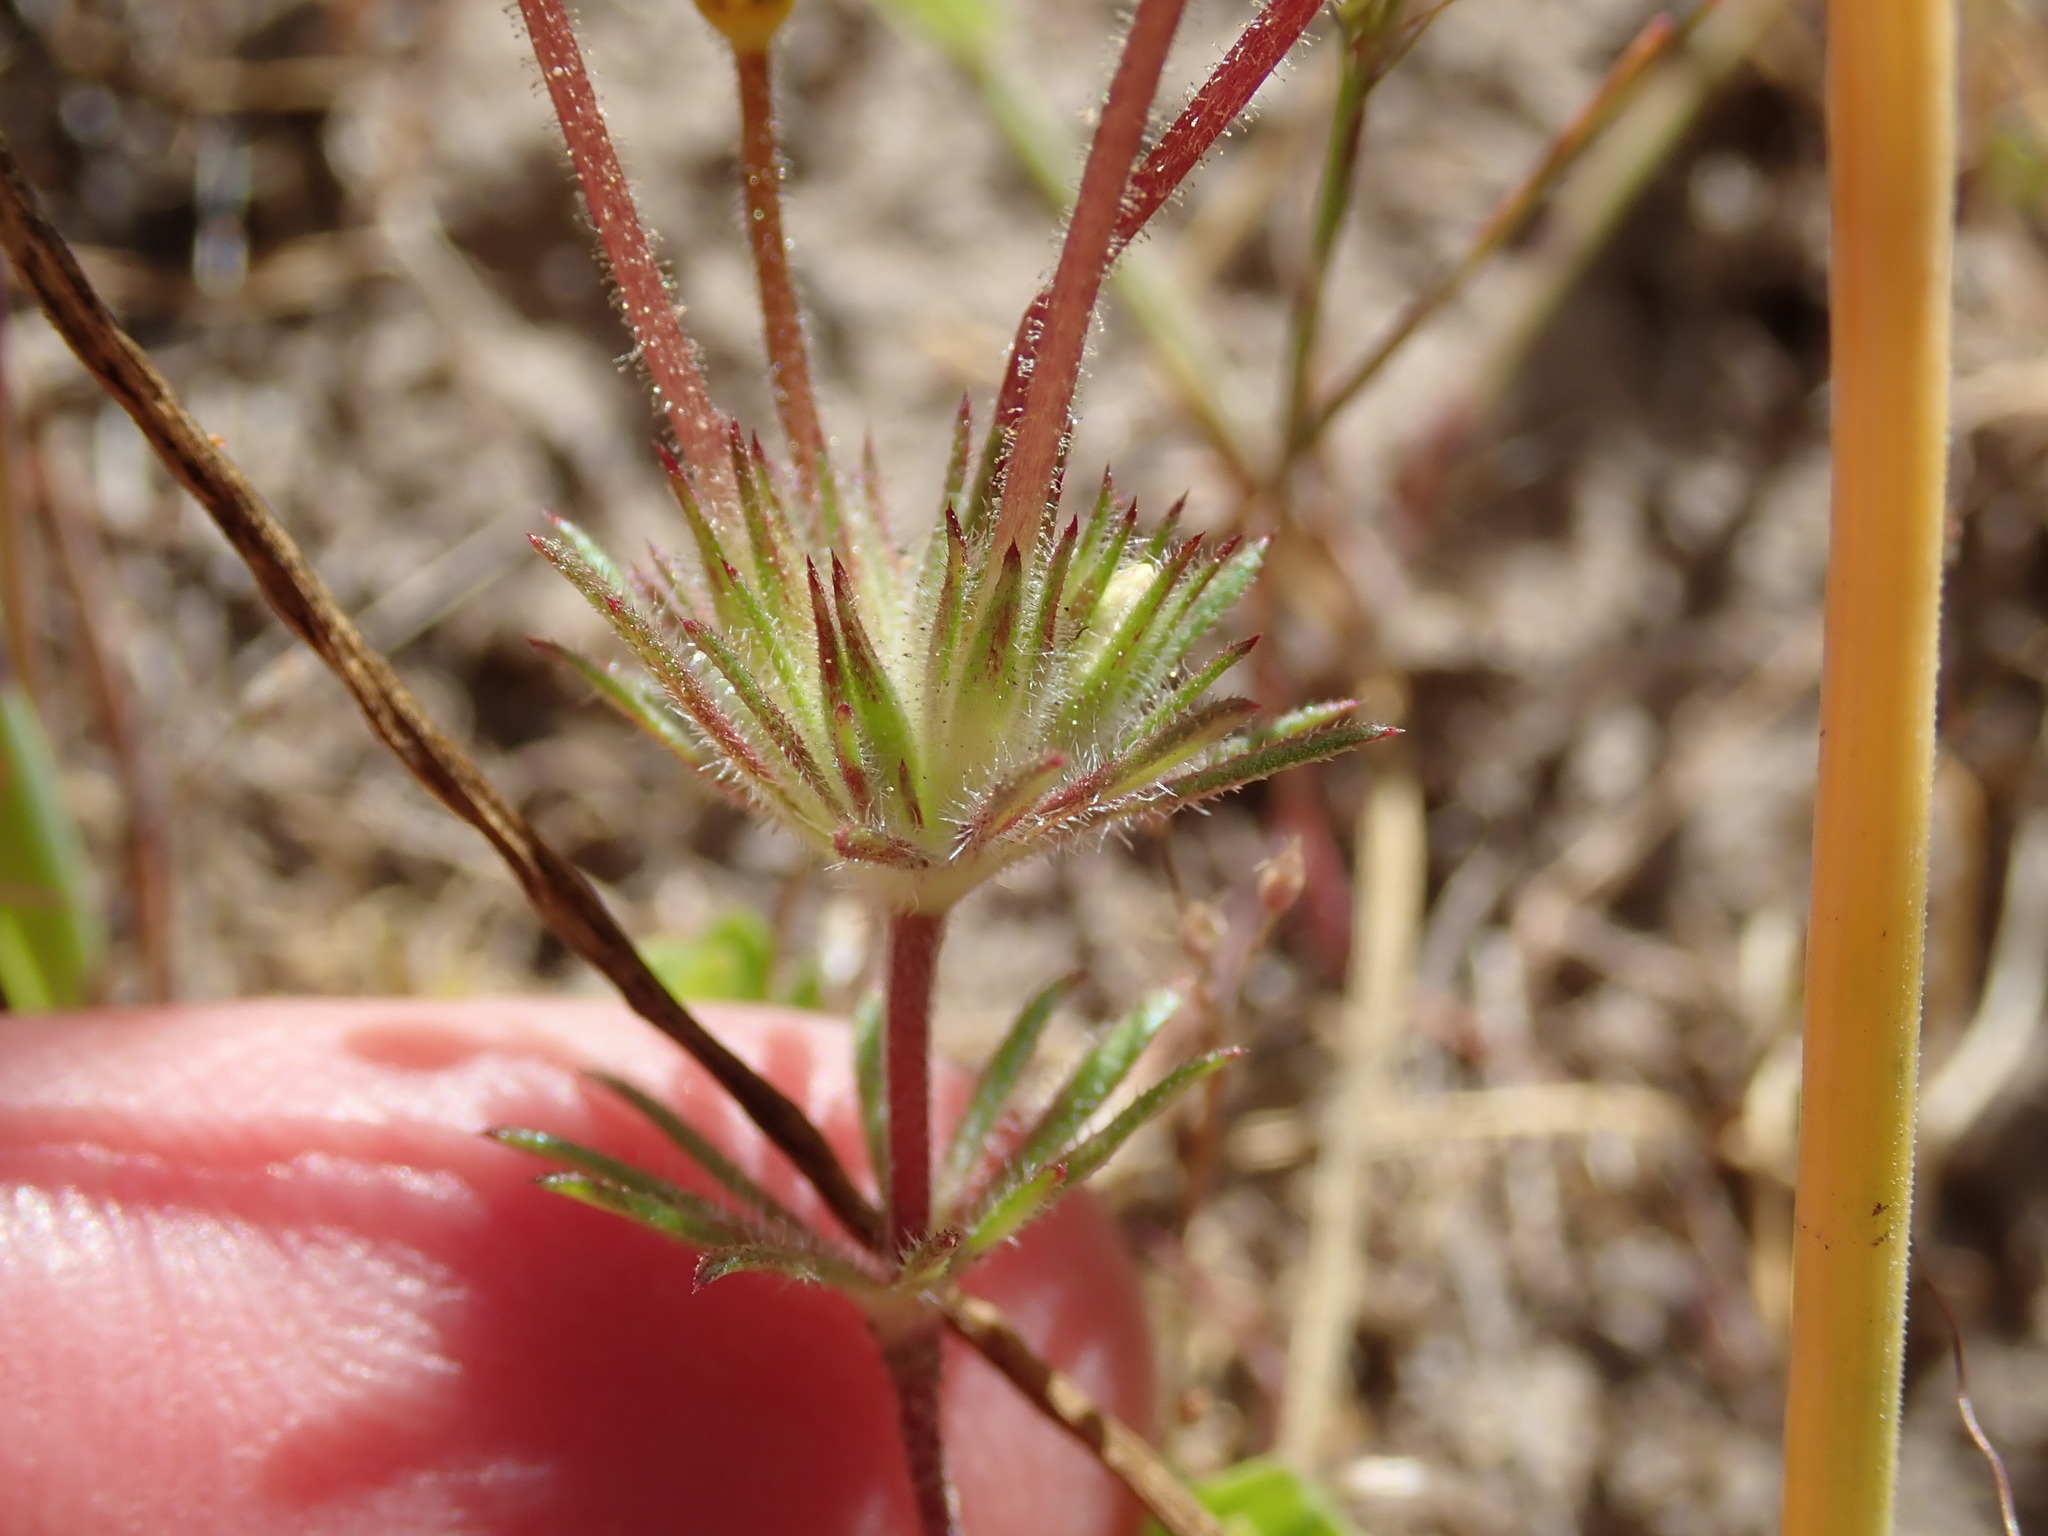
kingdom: Plantae
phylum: Tracheophyta
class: Magnoliopsida
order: Ericales
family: Polemoniaceae
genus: Leptosiphon
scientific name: Leptosiphon parviflorus
